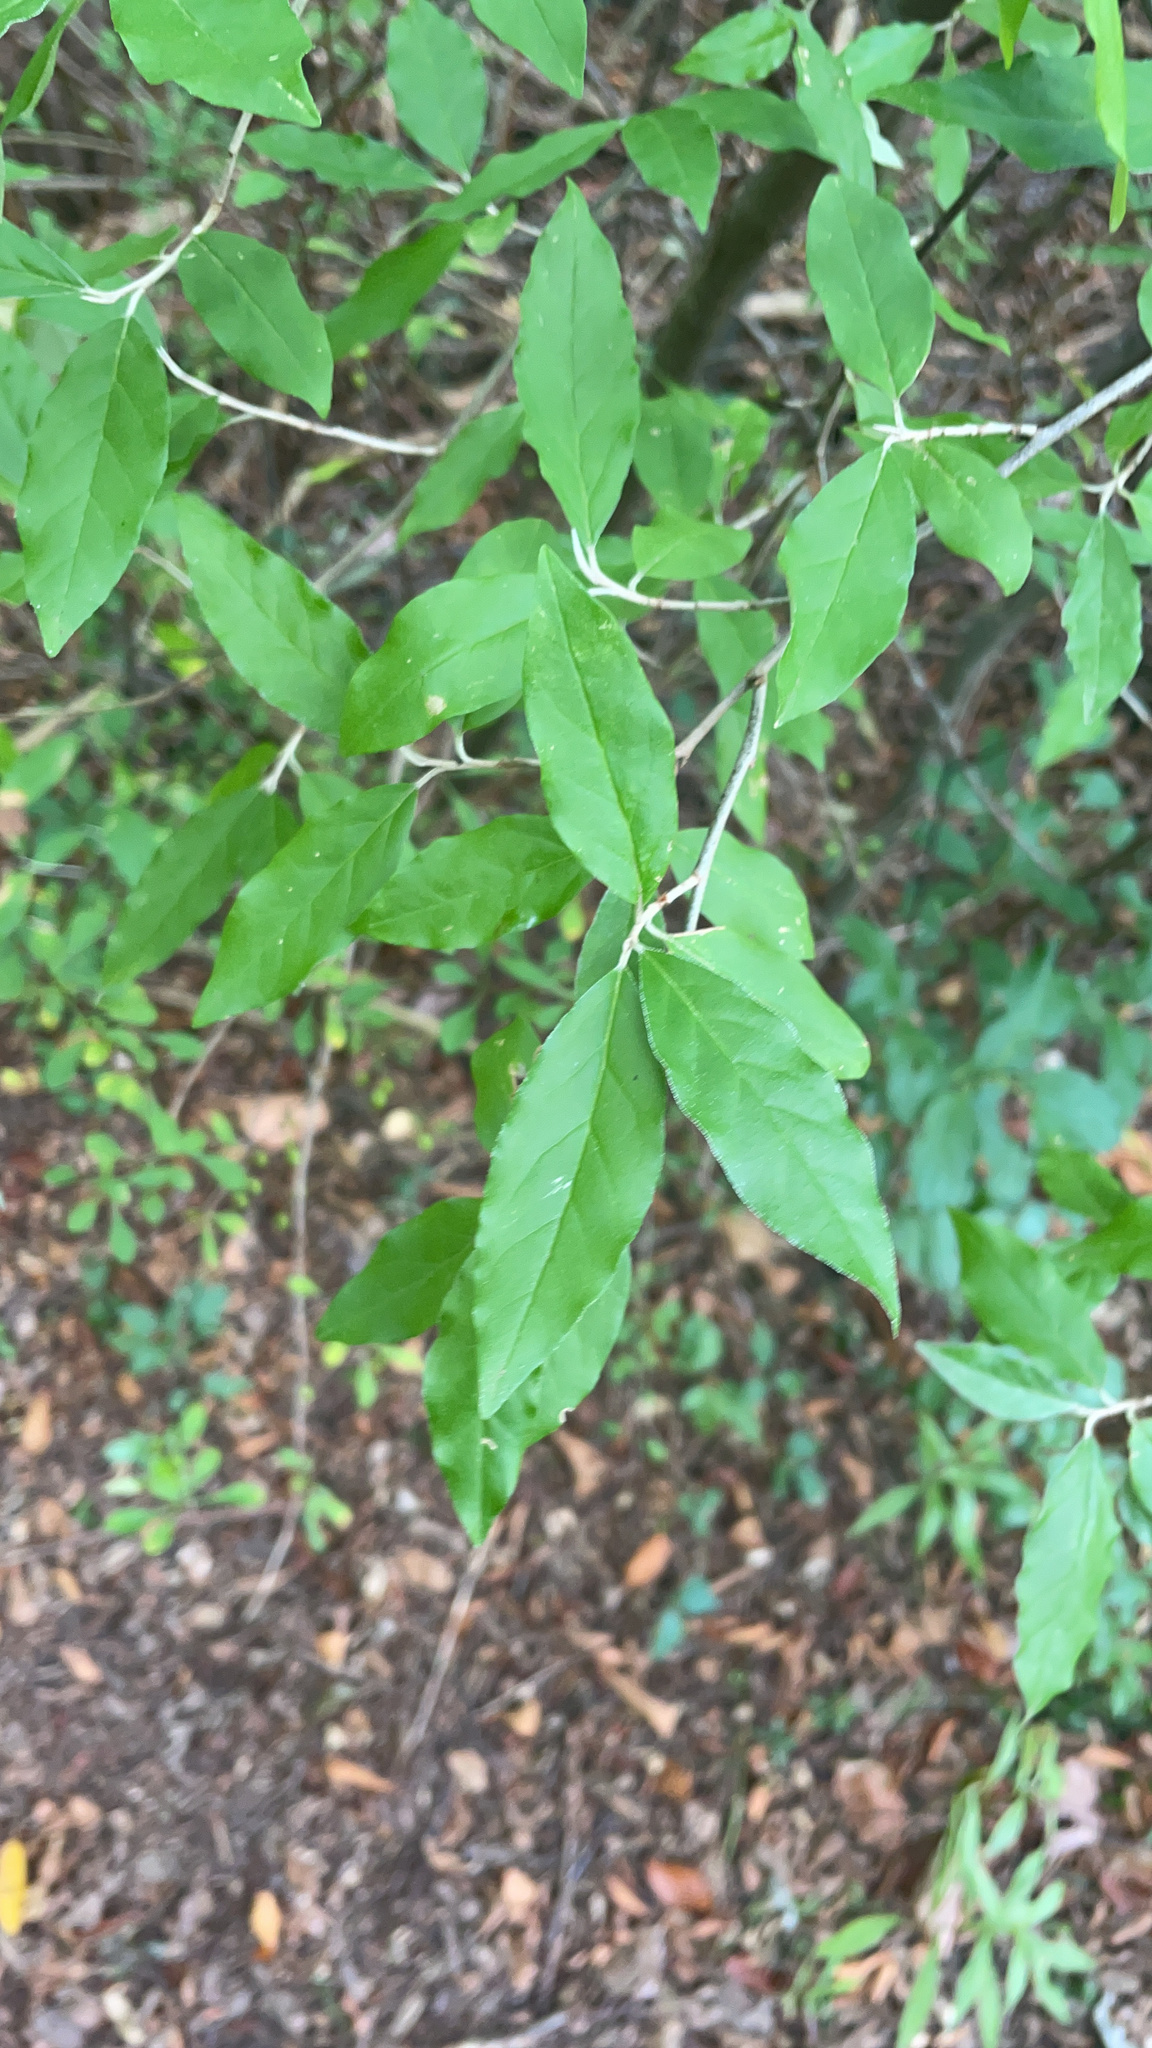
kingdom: Plantae
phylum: Tracheophyta
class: Magnoliopsida
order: Rosales
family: Elaeagnaceae
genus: Elaeagnus
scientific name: Elaeagnus umbellata
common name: Autumn olive
